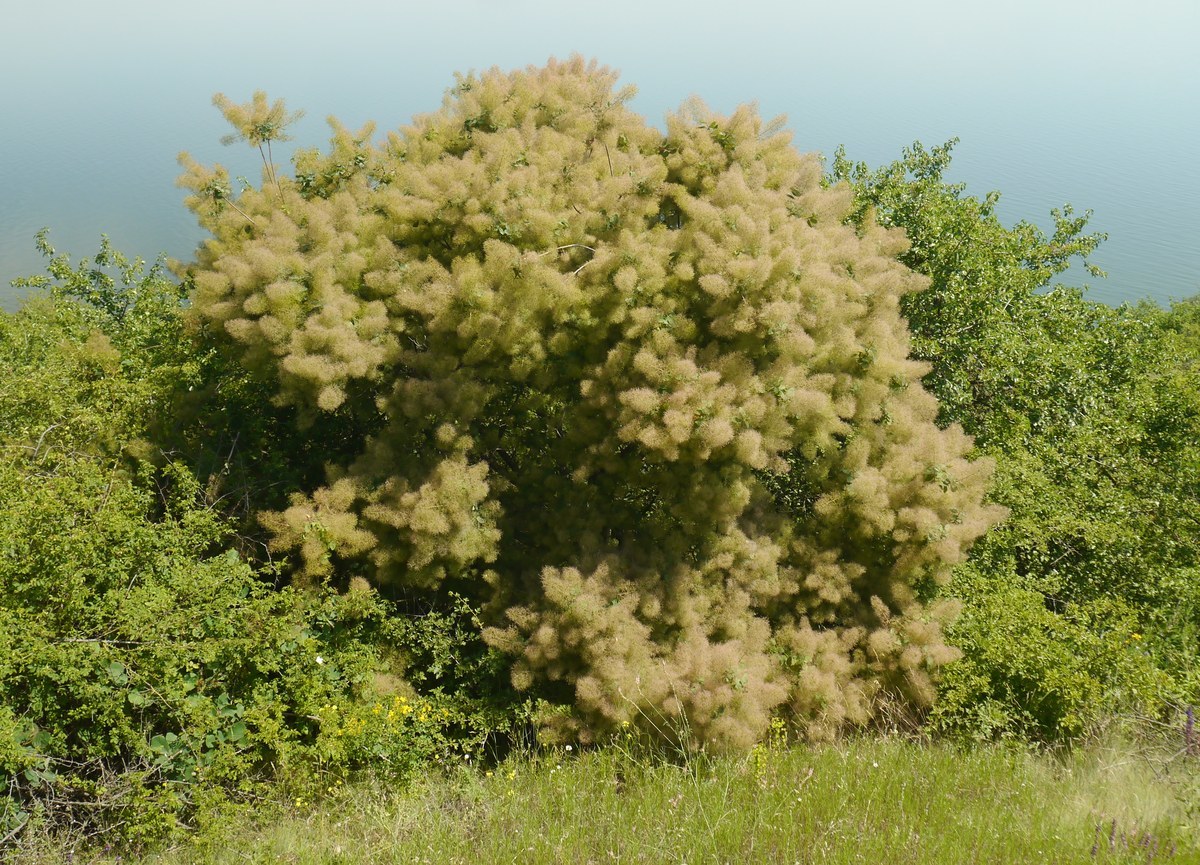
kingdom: Plantae
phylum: Tracheophyta
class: Magnoliopsida
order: Sapindales
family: Anacardiaceae
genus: Cotinus
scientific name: Cotinus coggygria
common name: Smoke-tree
